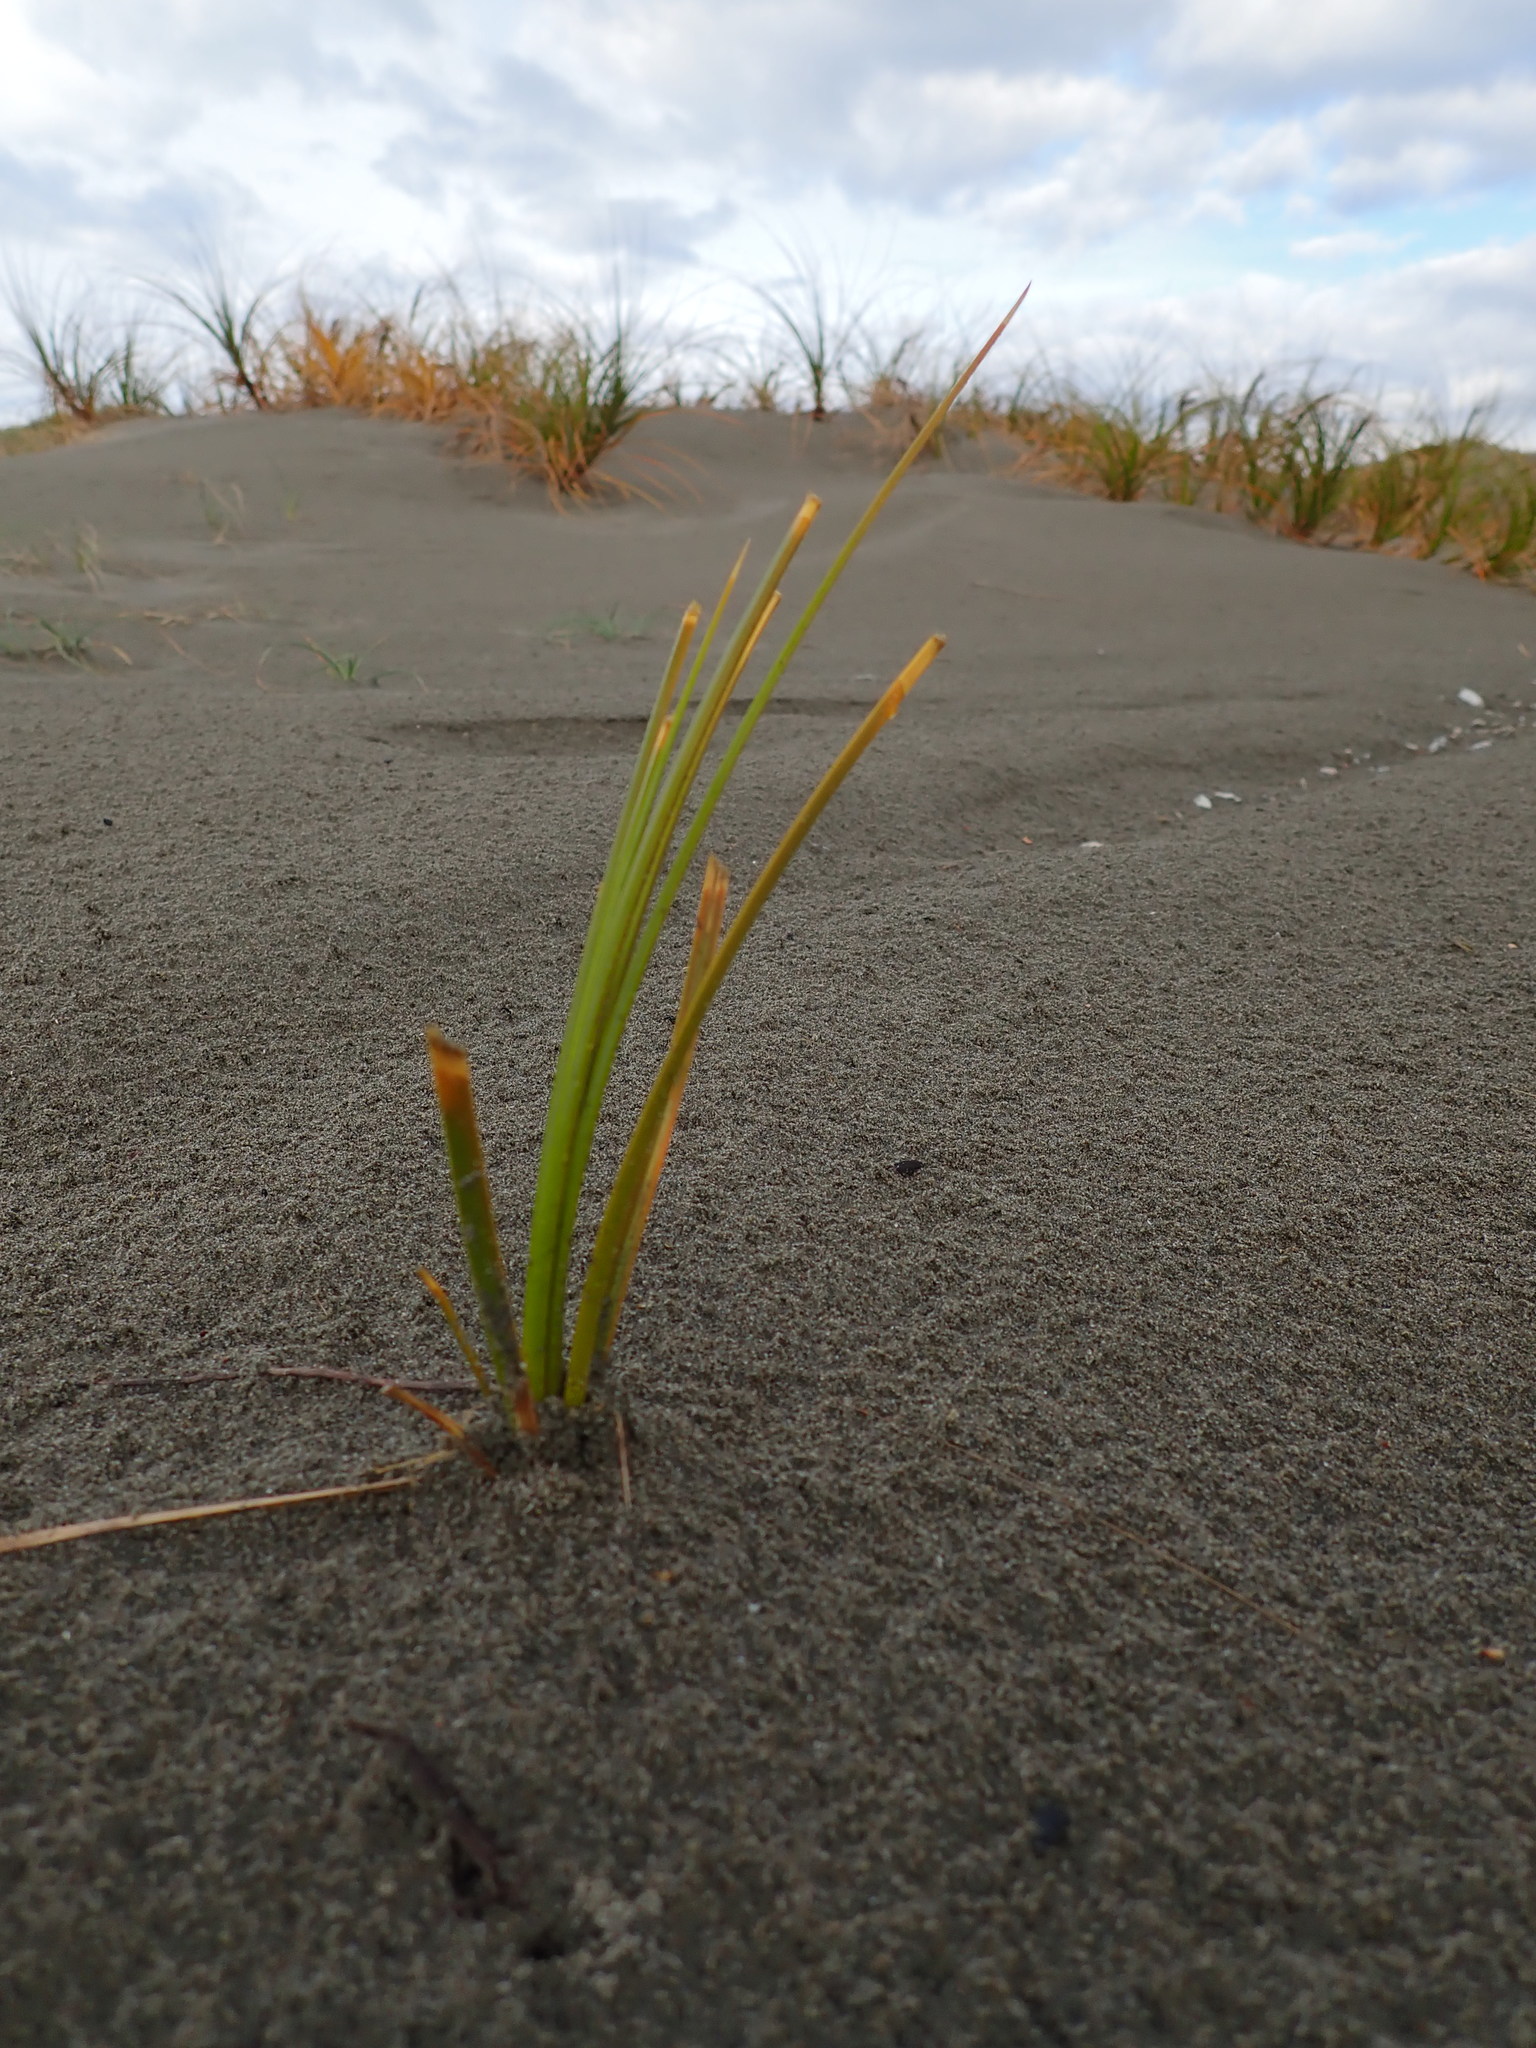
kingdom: Plantae
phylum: Tracheophyta
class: Liliopsida
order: Poales
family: Cyperaceae
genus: Ficinia
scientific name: Ficinia spiralis
